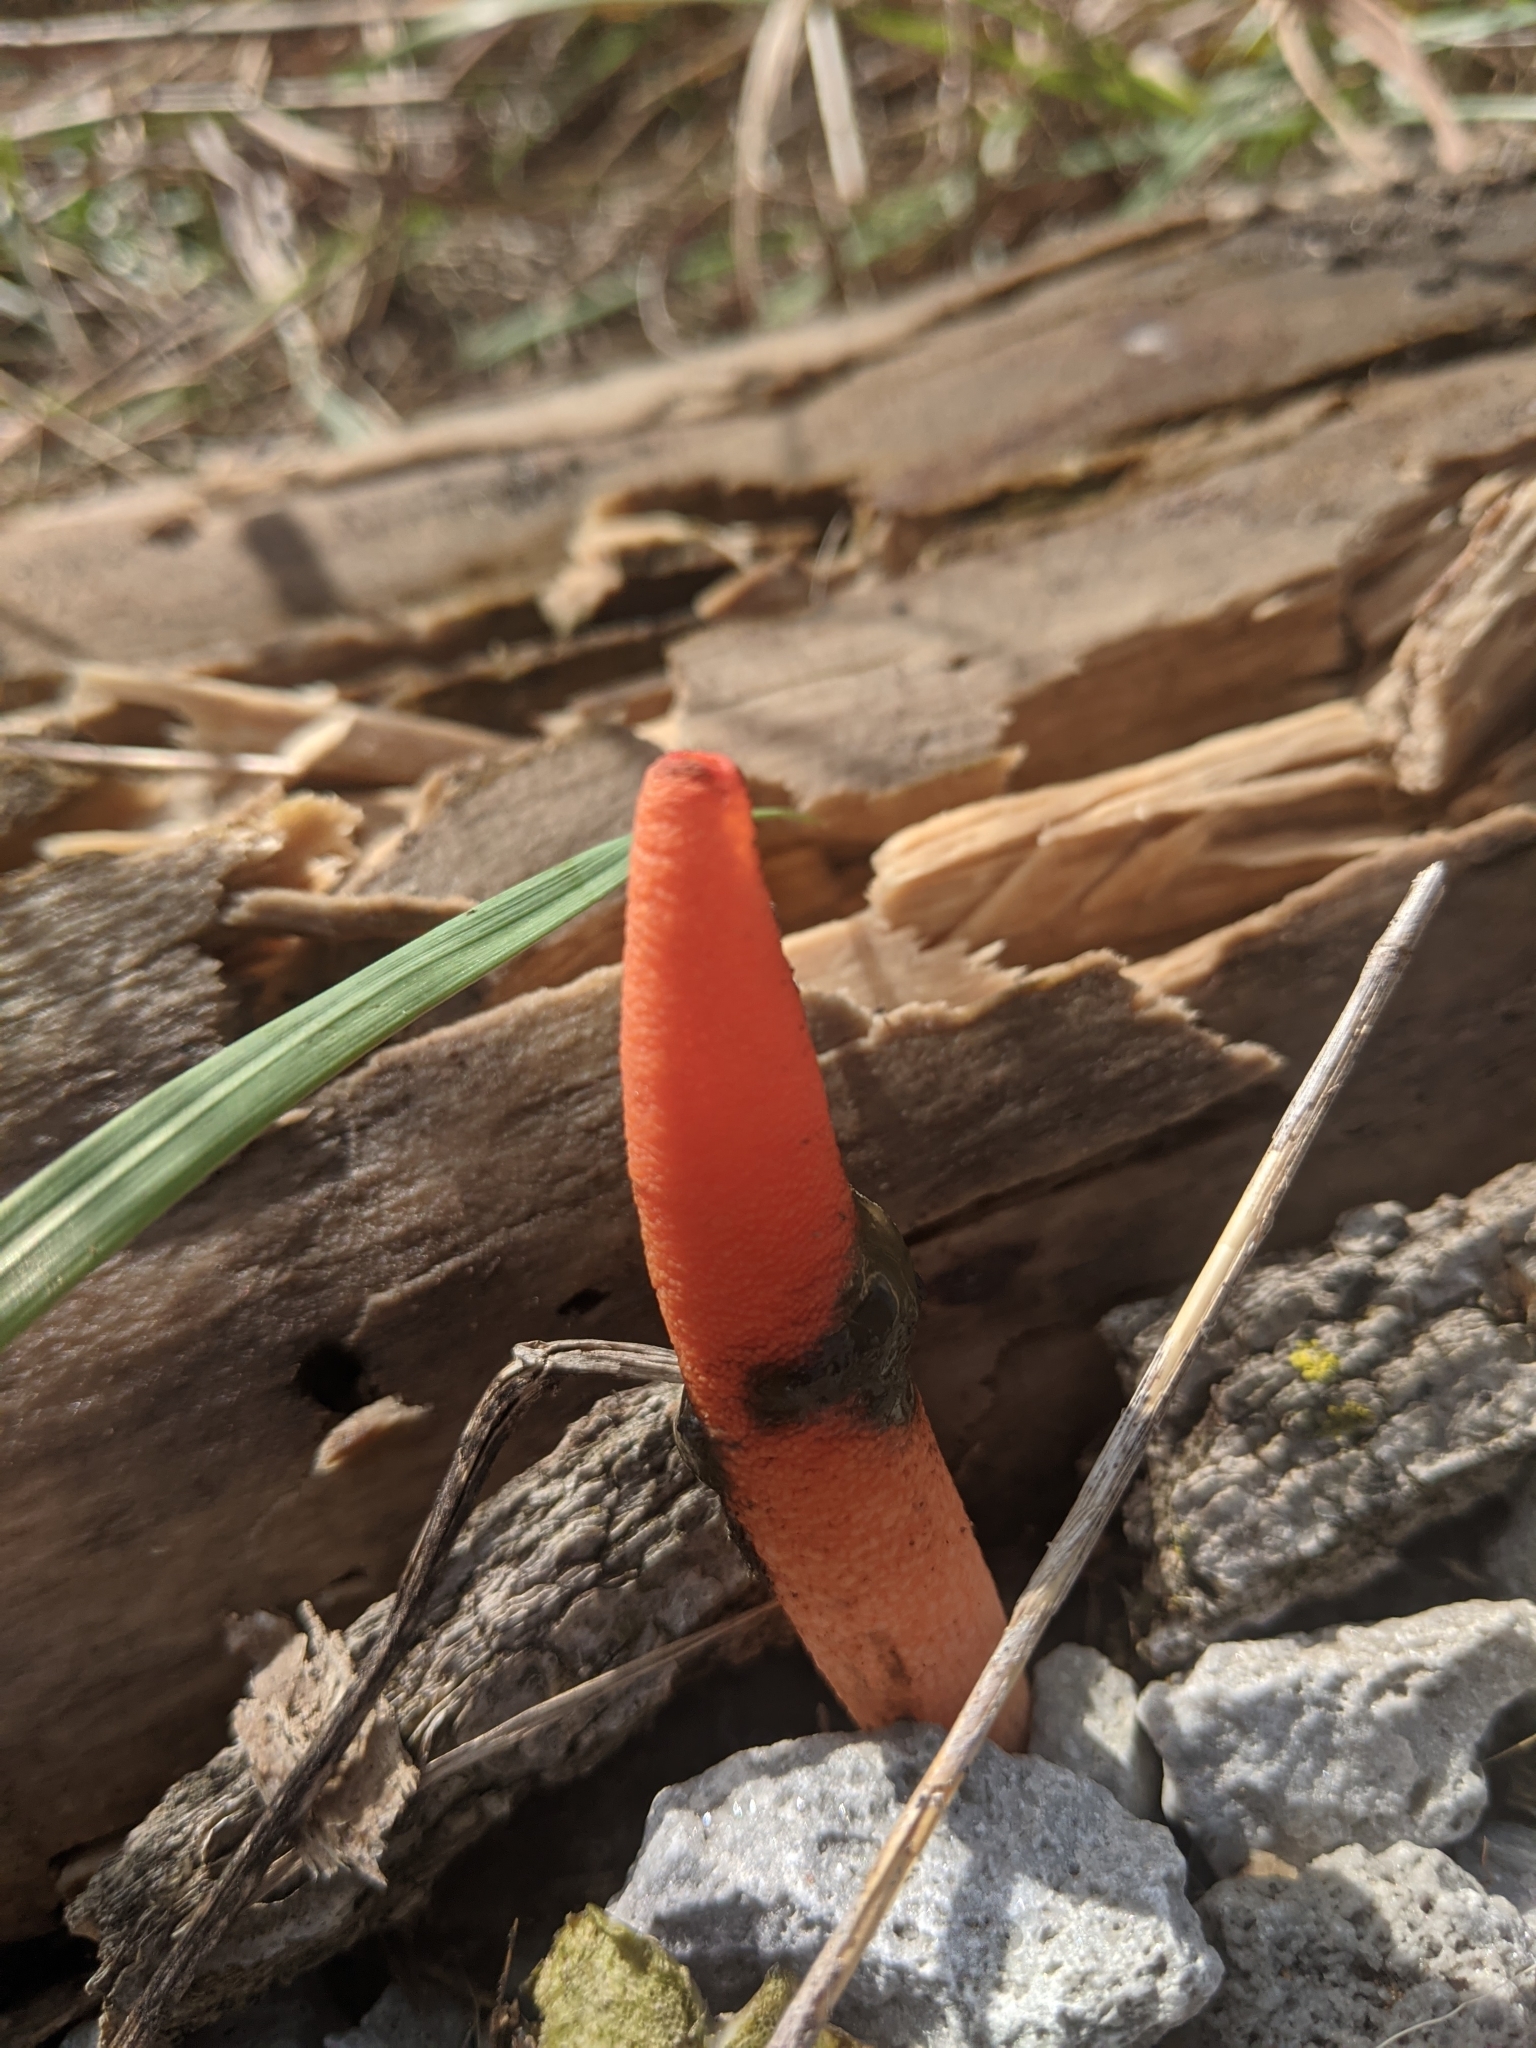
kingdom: Fungi
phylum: Basidiomycota
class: Agaricomycetes
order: Phallales
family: Phallaceae
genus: Mutinus
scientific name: Mutinus elegans
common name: Devil's dipstick
